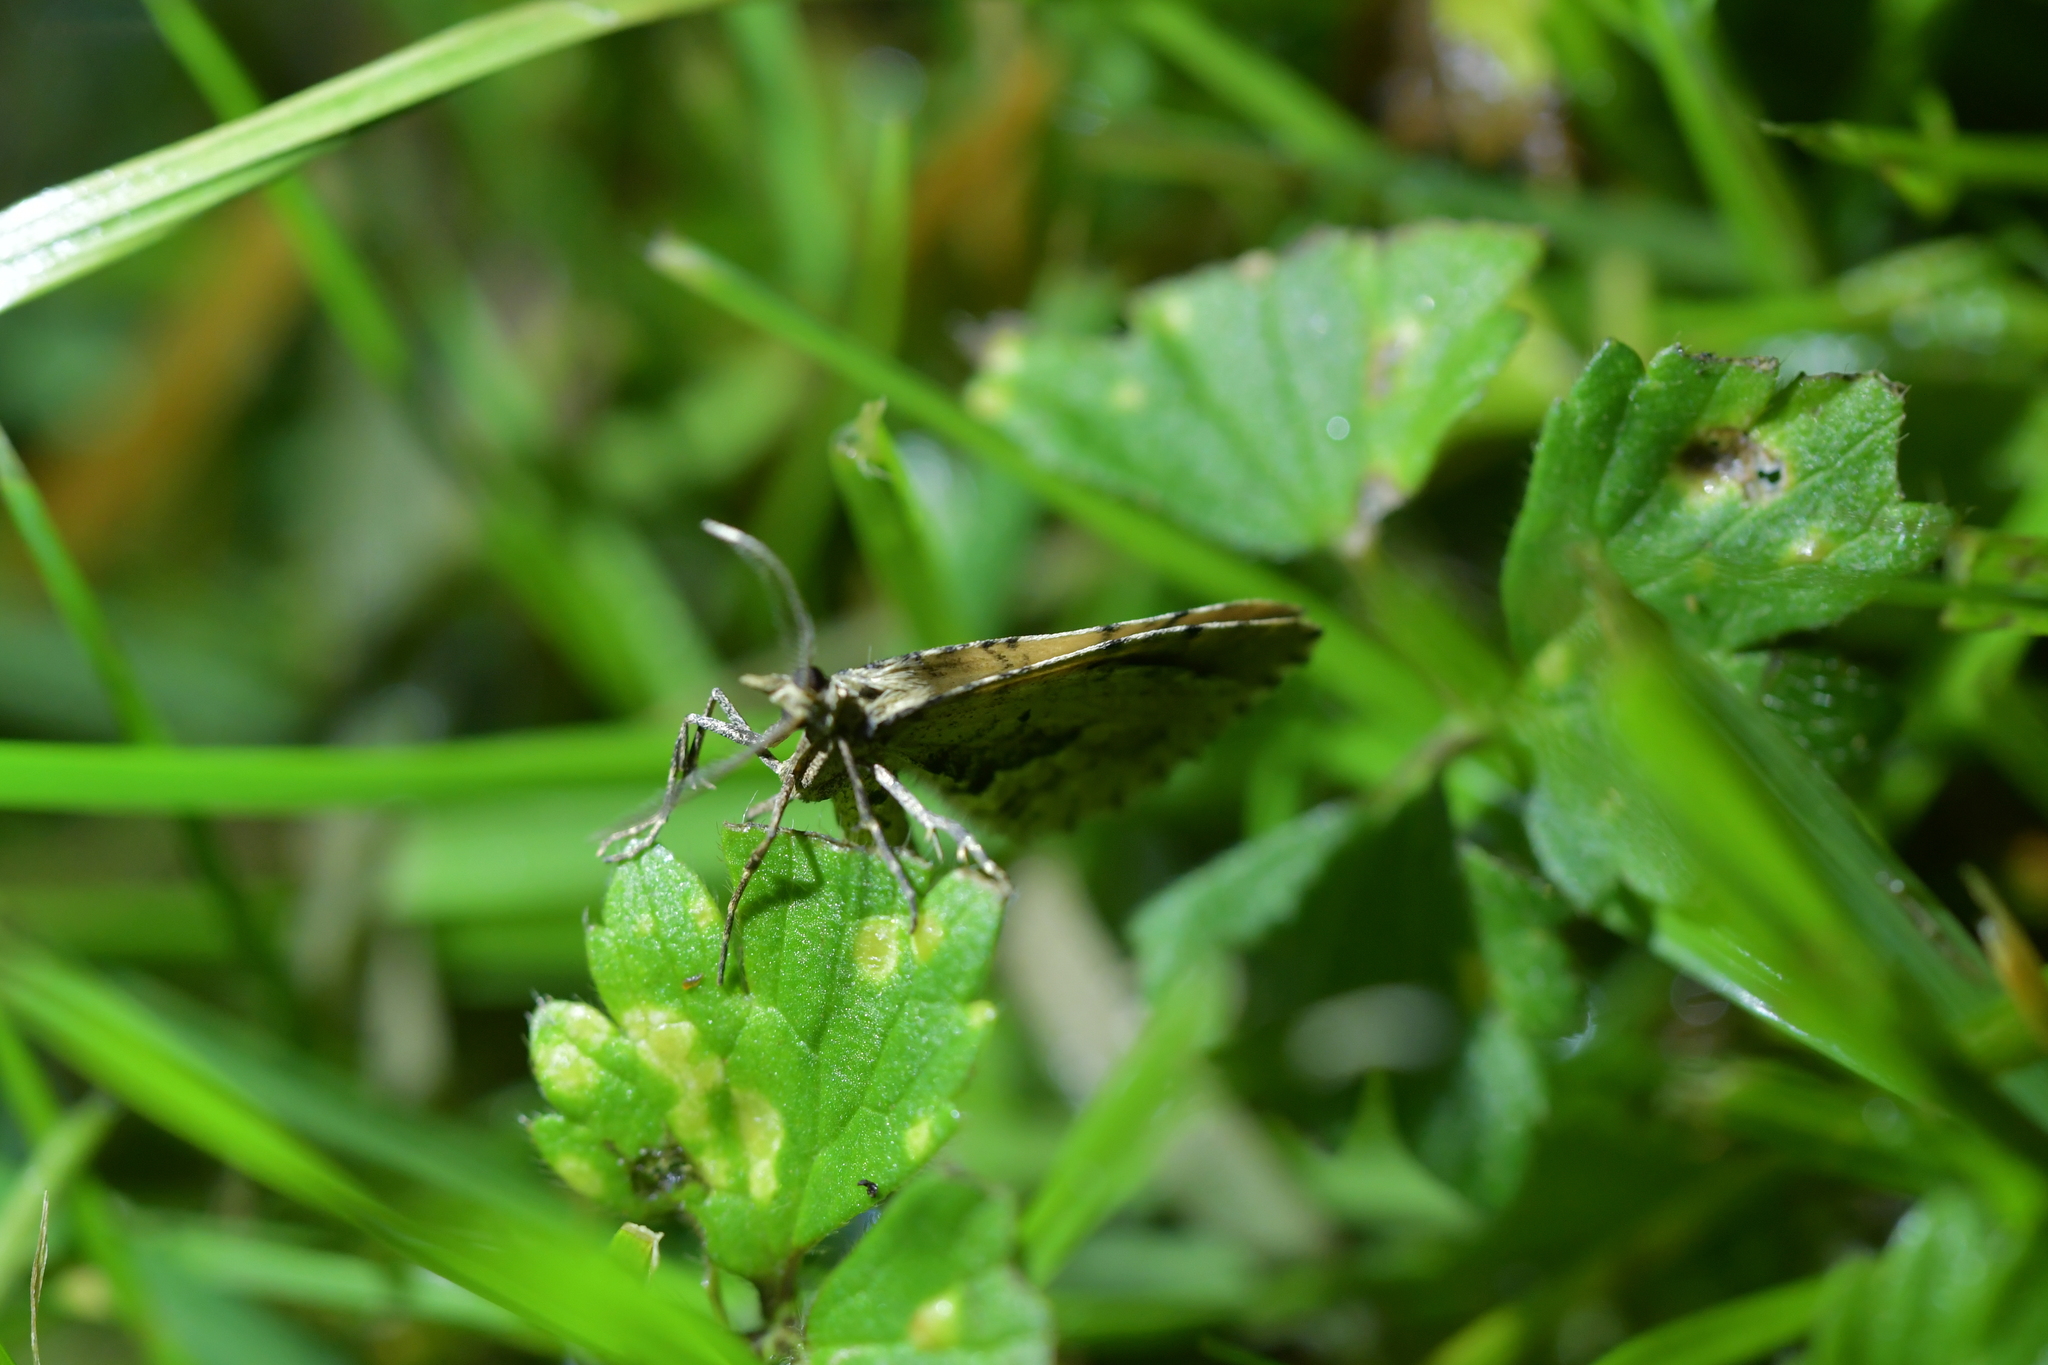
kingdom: Animalia
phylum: Arthropoda
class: Insecta
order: Lepidoptera
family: Geometridae
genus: Asaphodes
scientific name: Asaphodes aegrota
